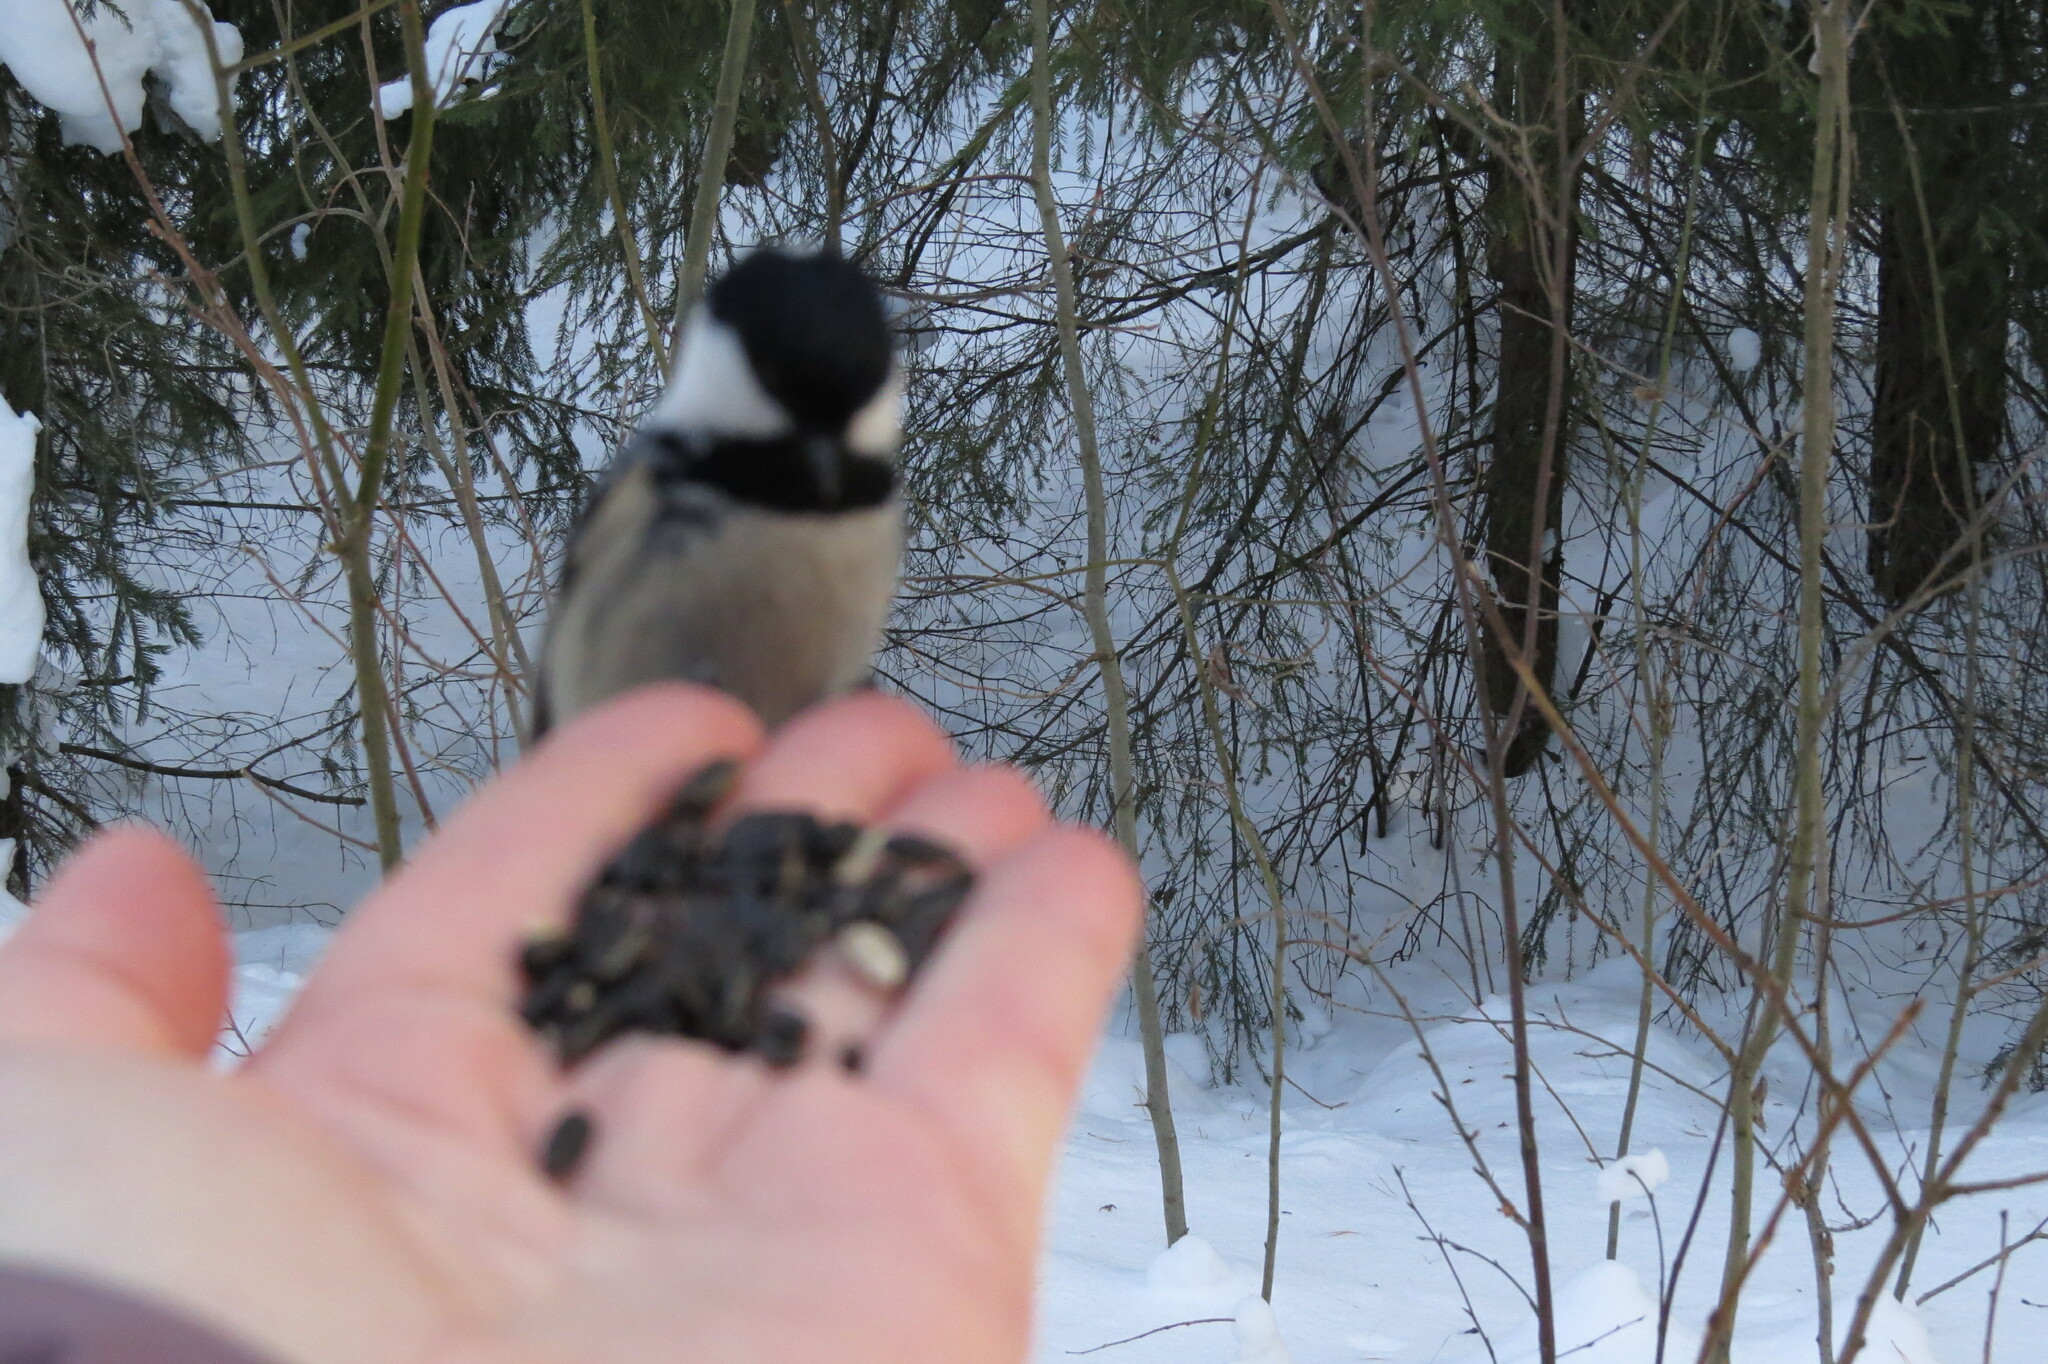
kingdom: Animalia
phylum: Chordata
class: Aves
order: Passeriformes
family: Paridae
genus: Periparus
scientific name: Periparus ater
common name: Coal tit
